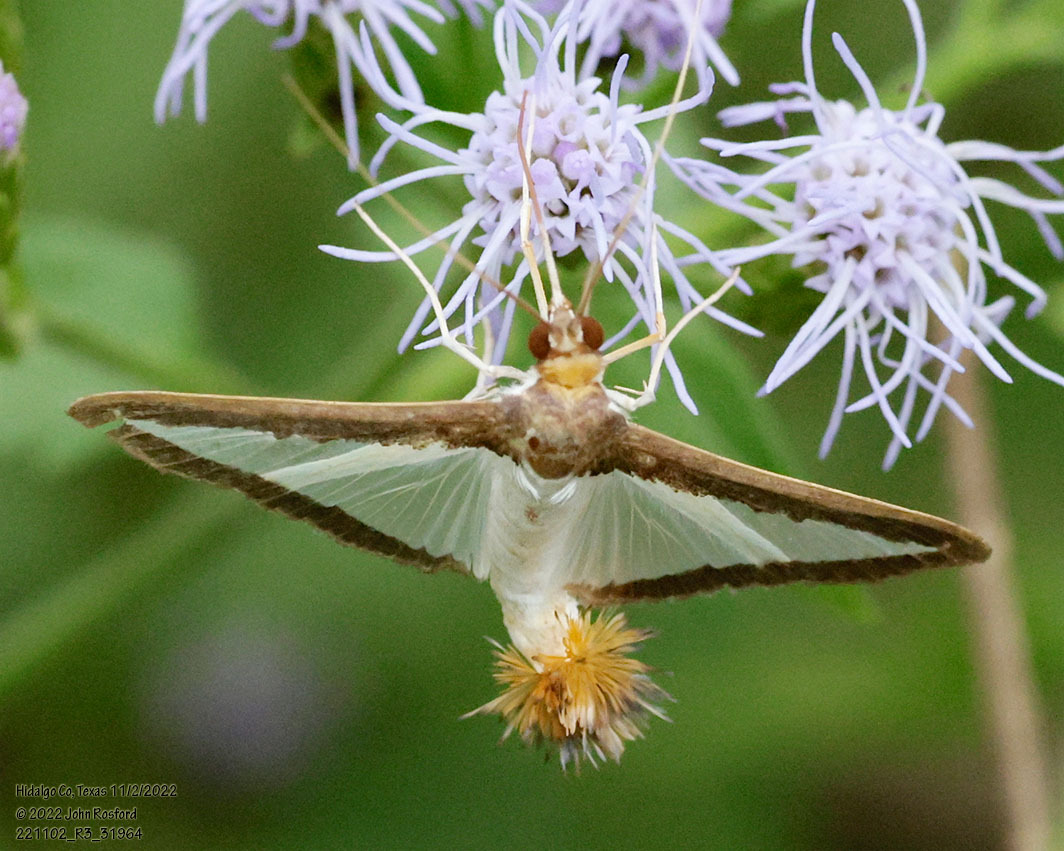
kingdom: Animalia
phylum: Arthropoda
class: Insecta
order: Lepidoptera
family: Crambidae
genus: Diaphania
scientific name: Diaphania hyalinata
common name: Melonworm
